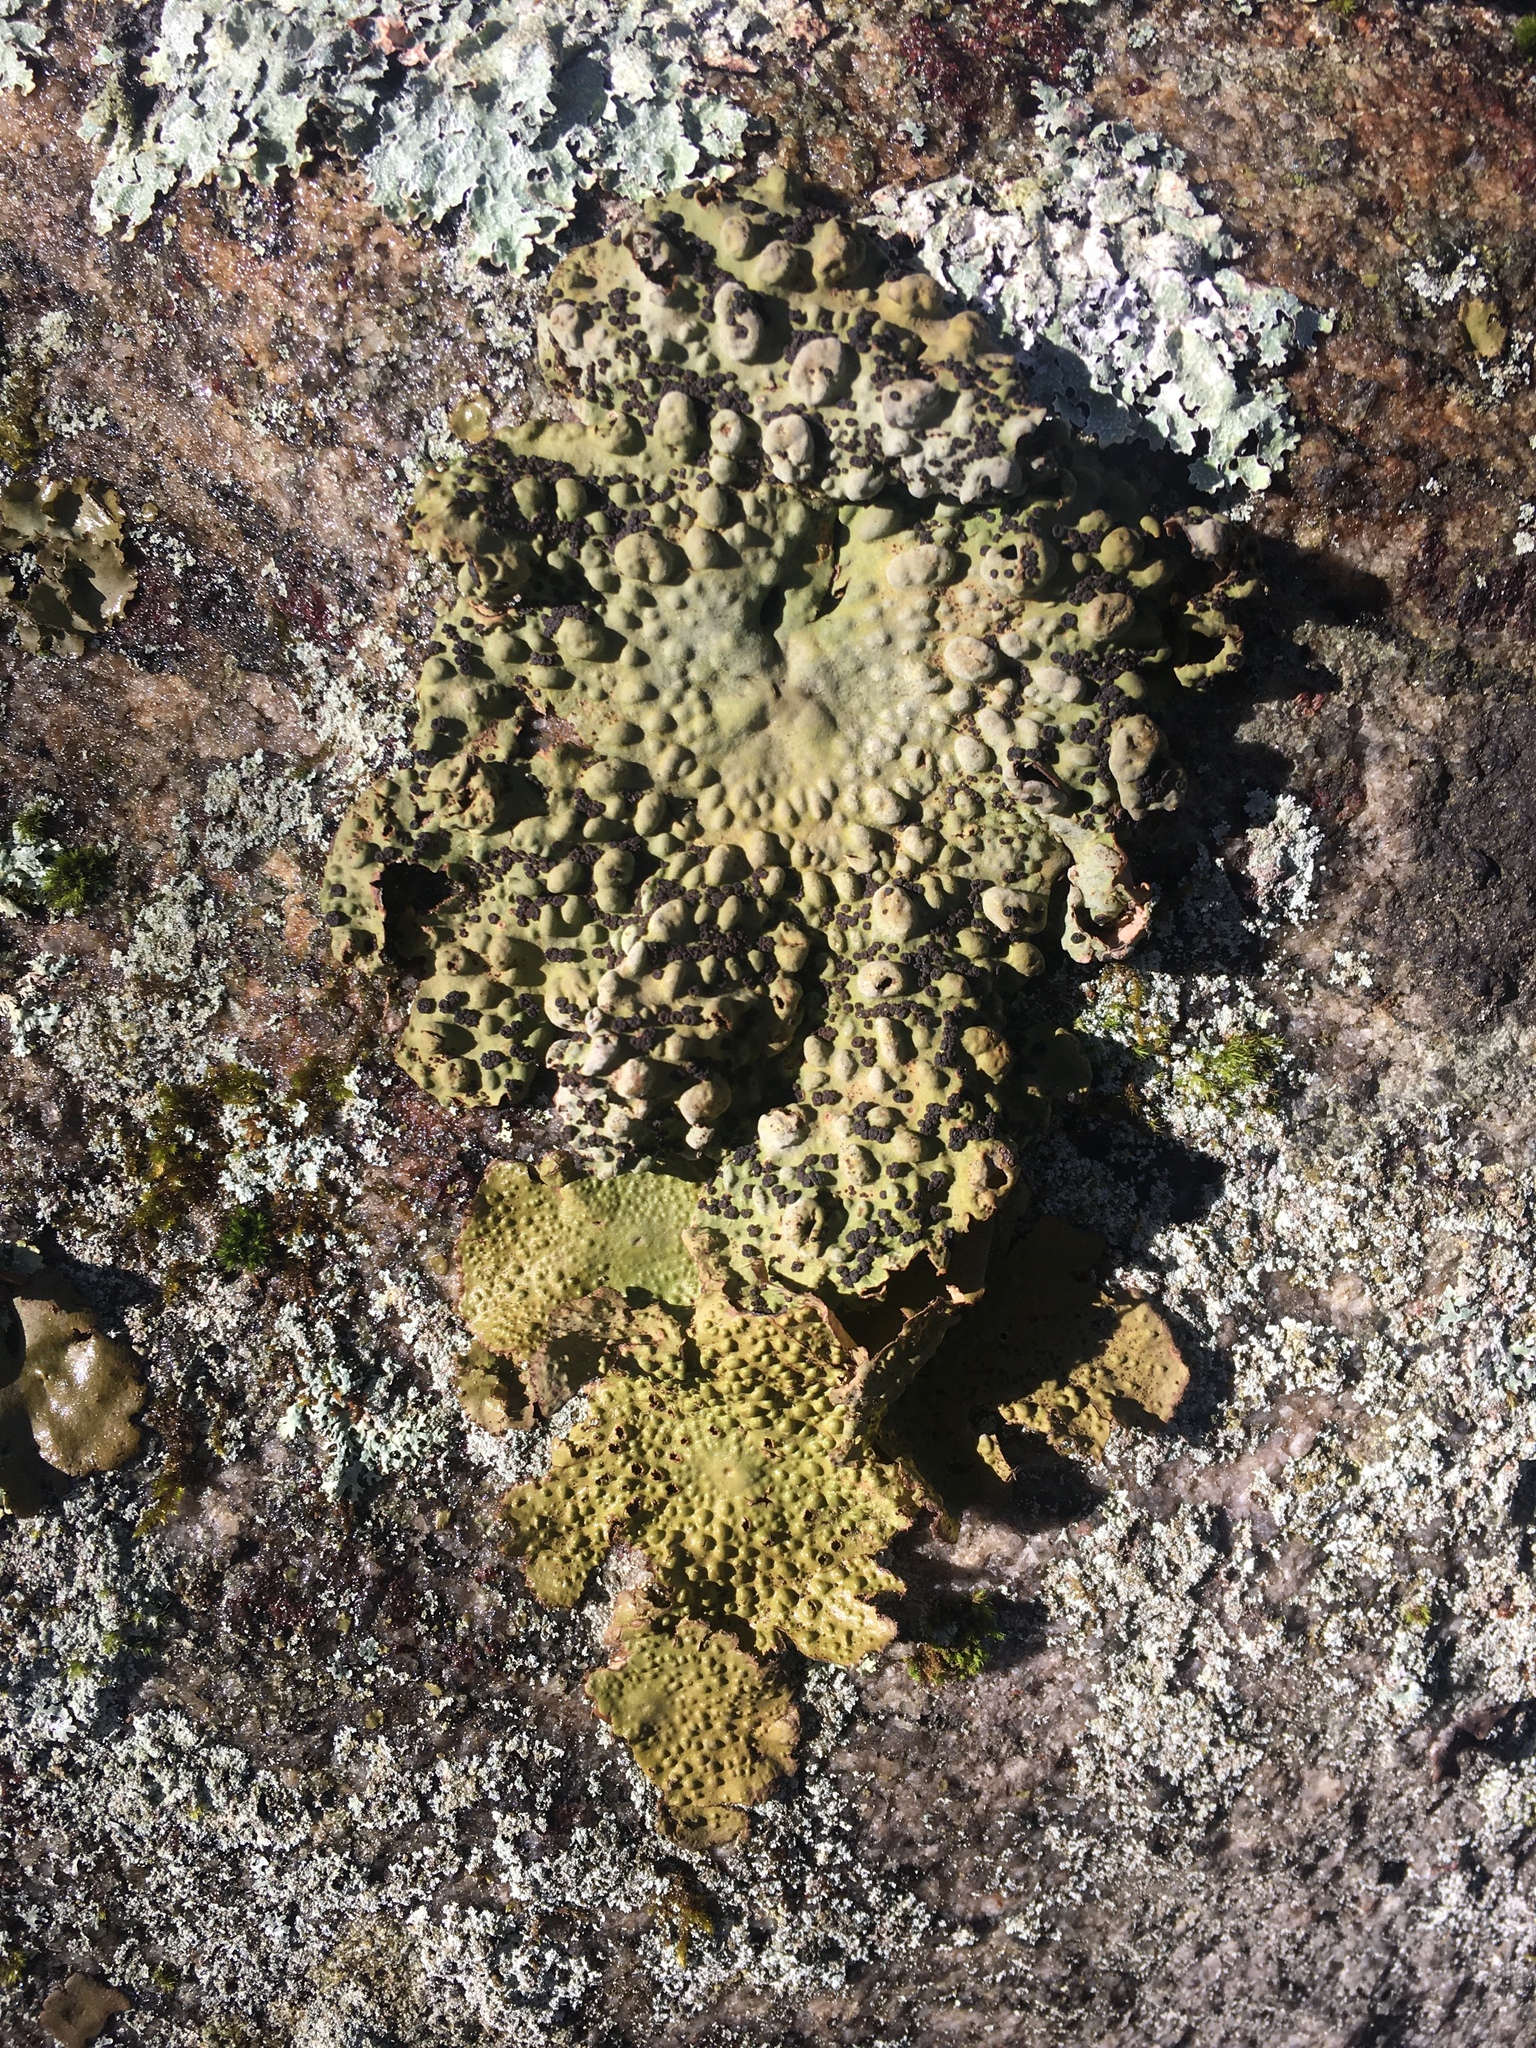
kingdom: Fungi
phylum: Ascomycota
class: Lecanoromycetes
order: Umbilicariales
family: Umbilicariaceae
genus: Lasallia
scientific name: Lasallia papulosa
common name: Common toadskin lichen
